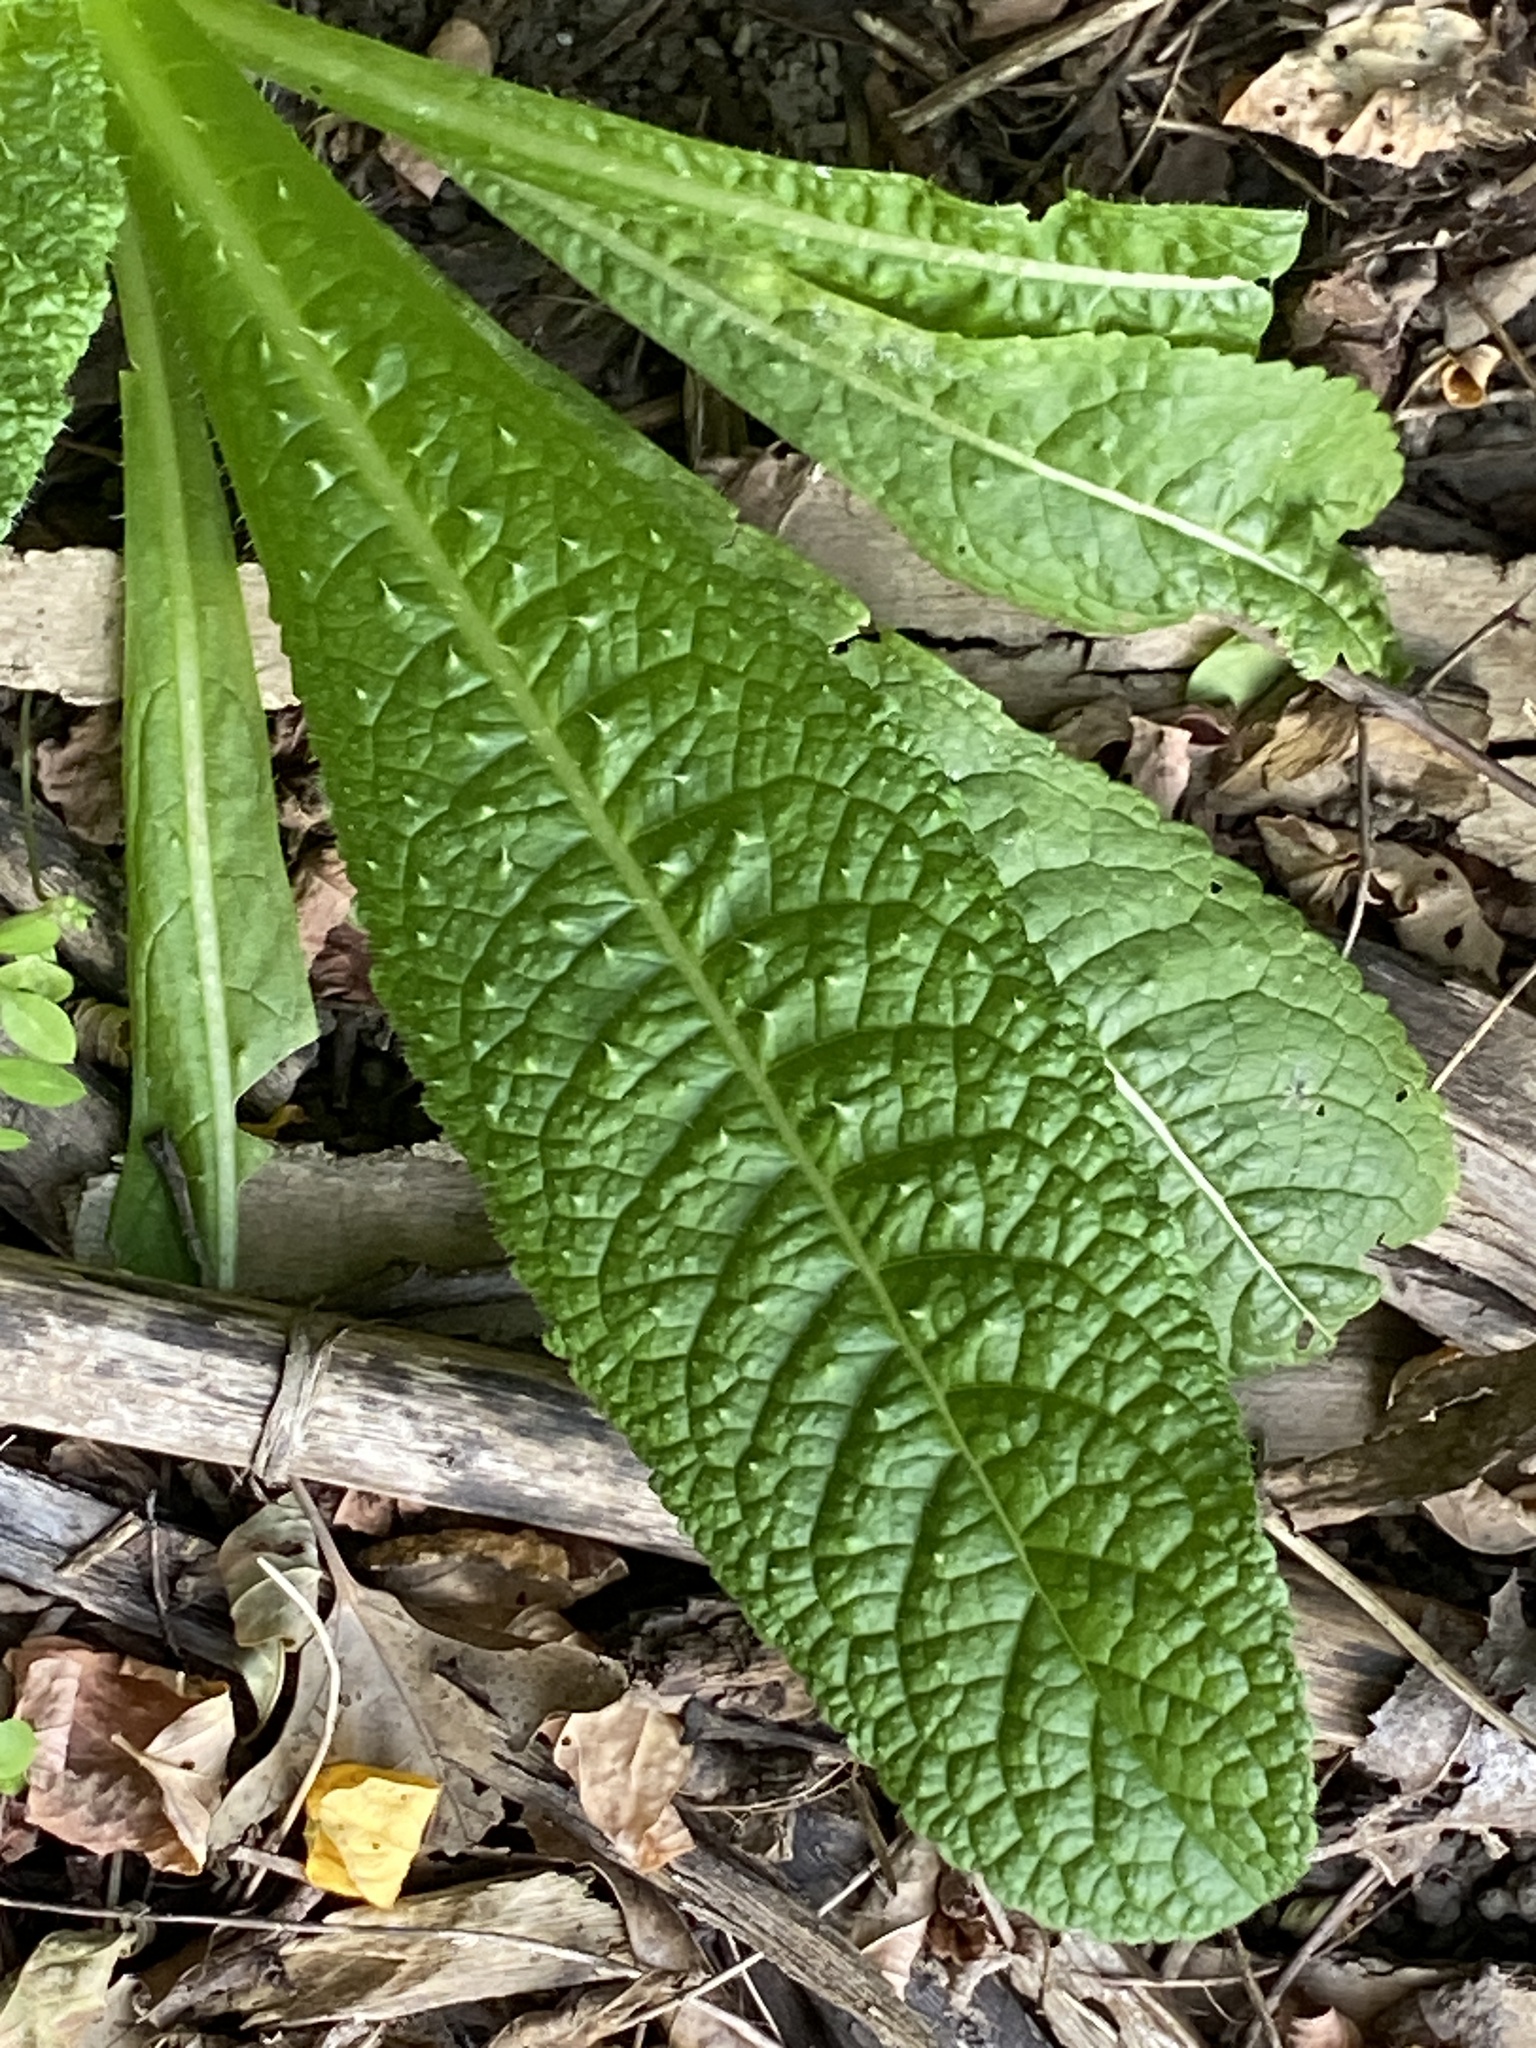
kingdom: Plantae
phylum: Tracheophyta
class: Magnoliopsida
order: Dipsacales
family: Caprifoliaceae
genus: Dipsacus
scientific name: Dipsacus fullonum
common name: Teasel
